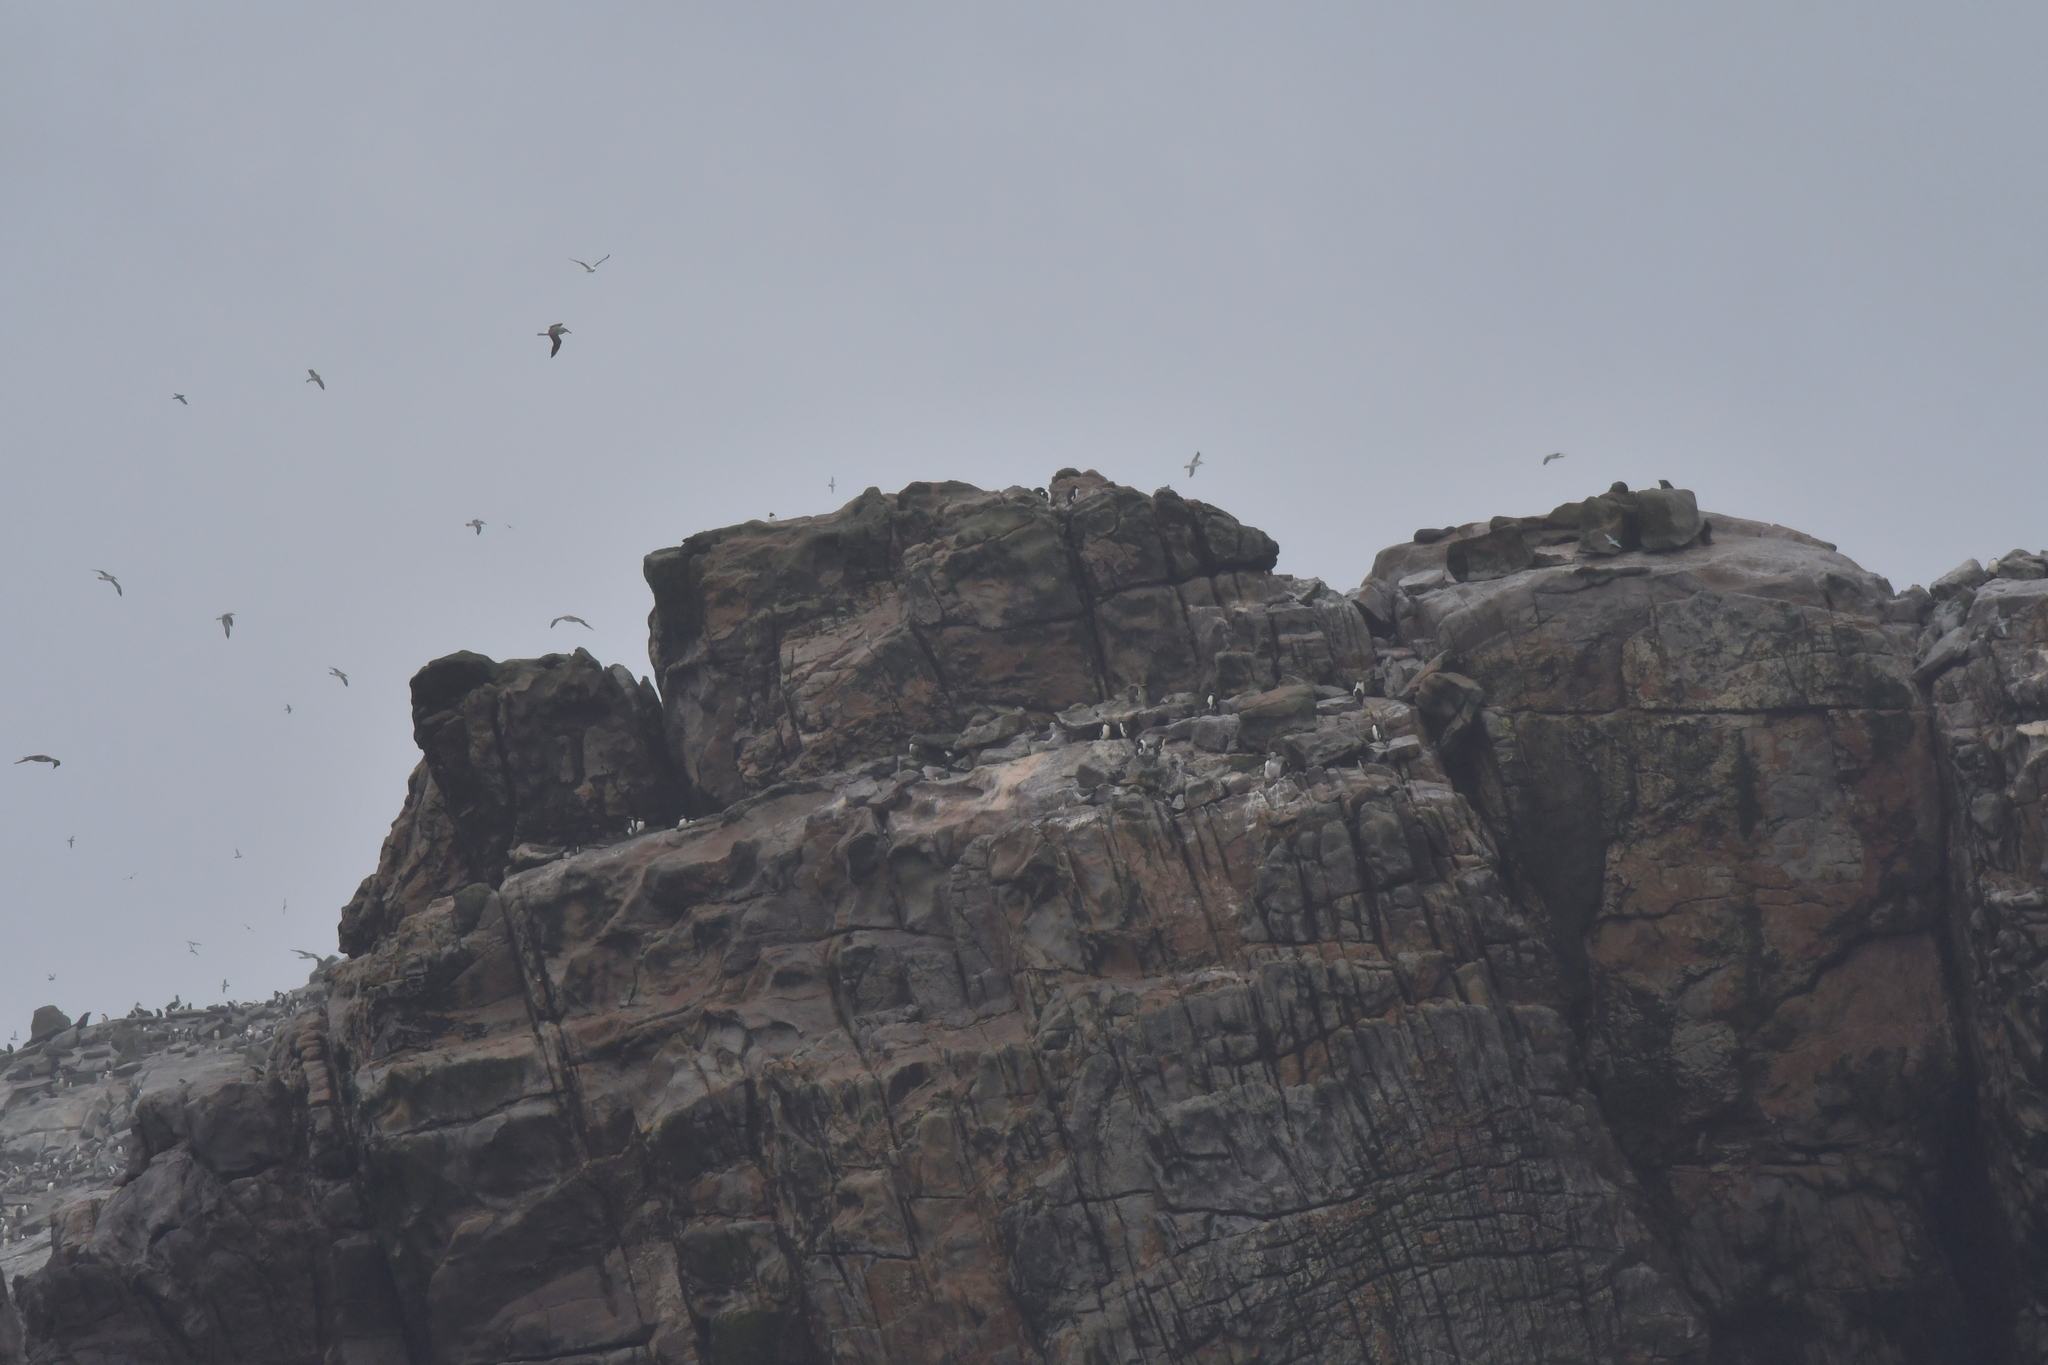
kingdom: Animalia
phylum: Chordata
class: Aves
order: Sphenisciformes
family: Spheniscidae
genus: Eudyptes
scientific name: Eudyptes sclateri
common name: Erect-crested penguin
